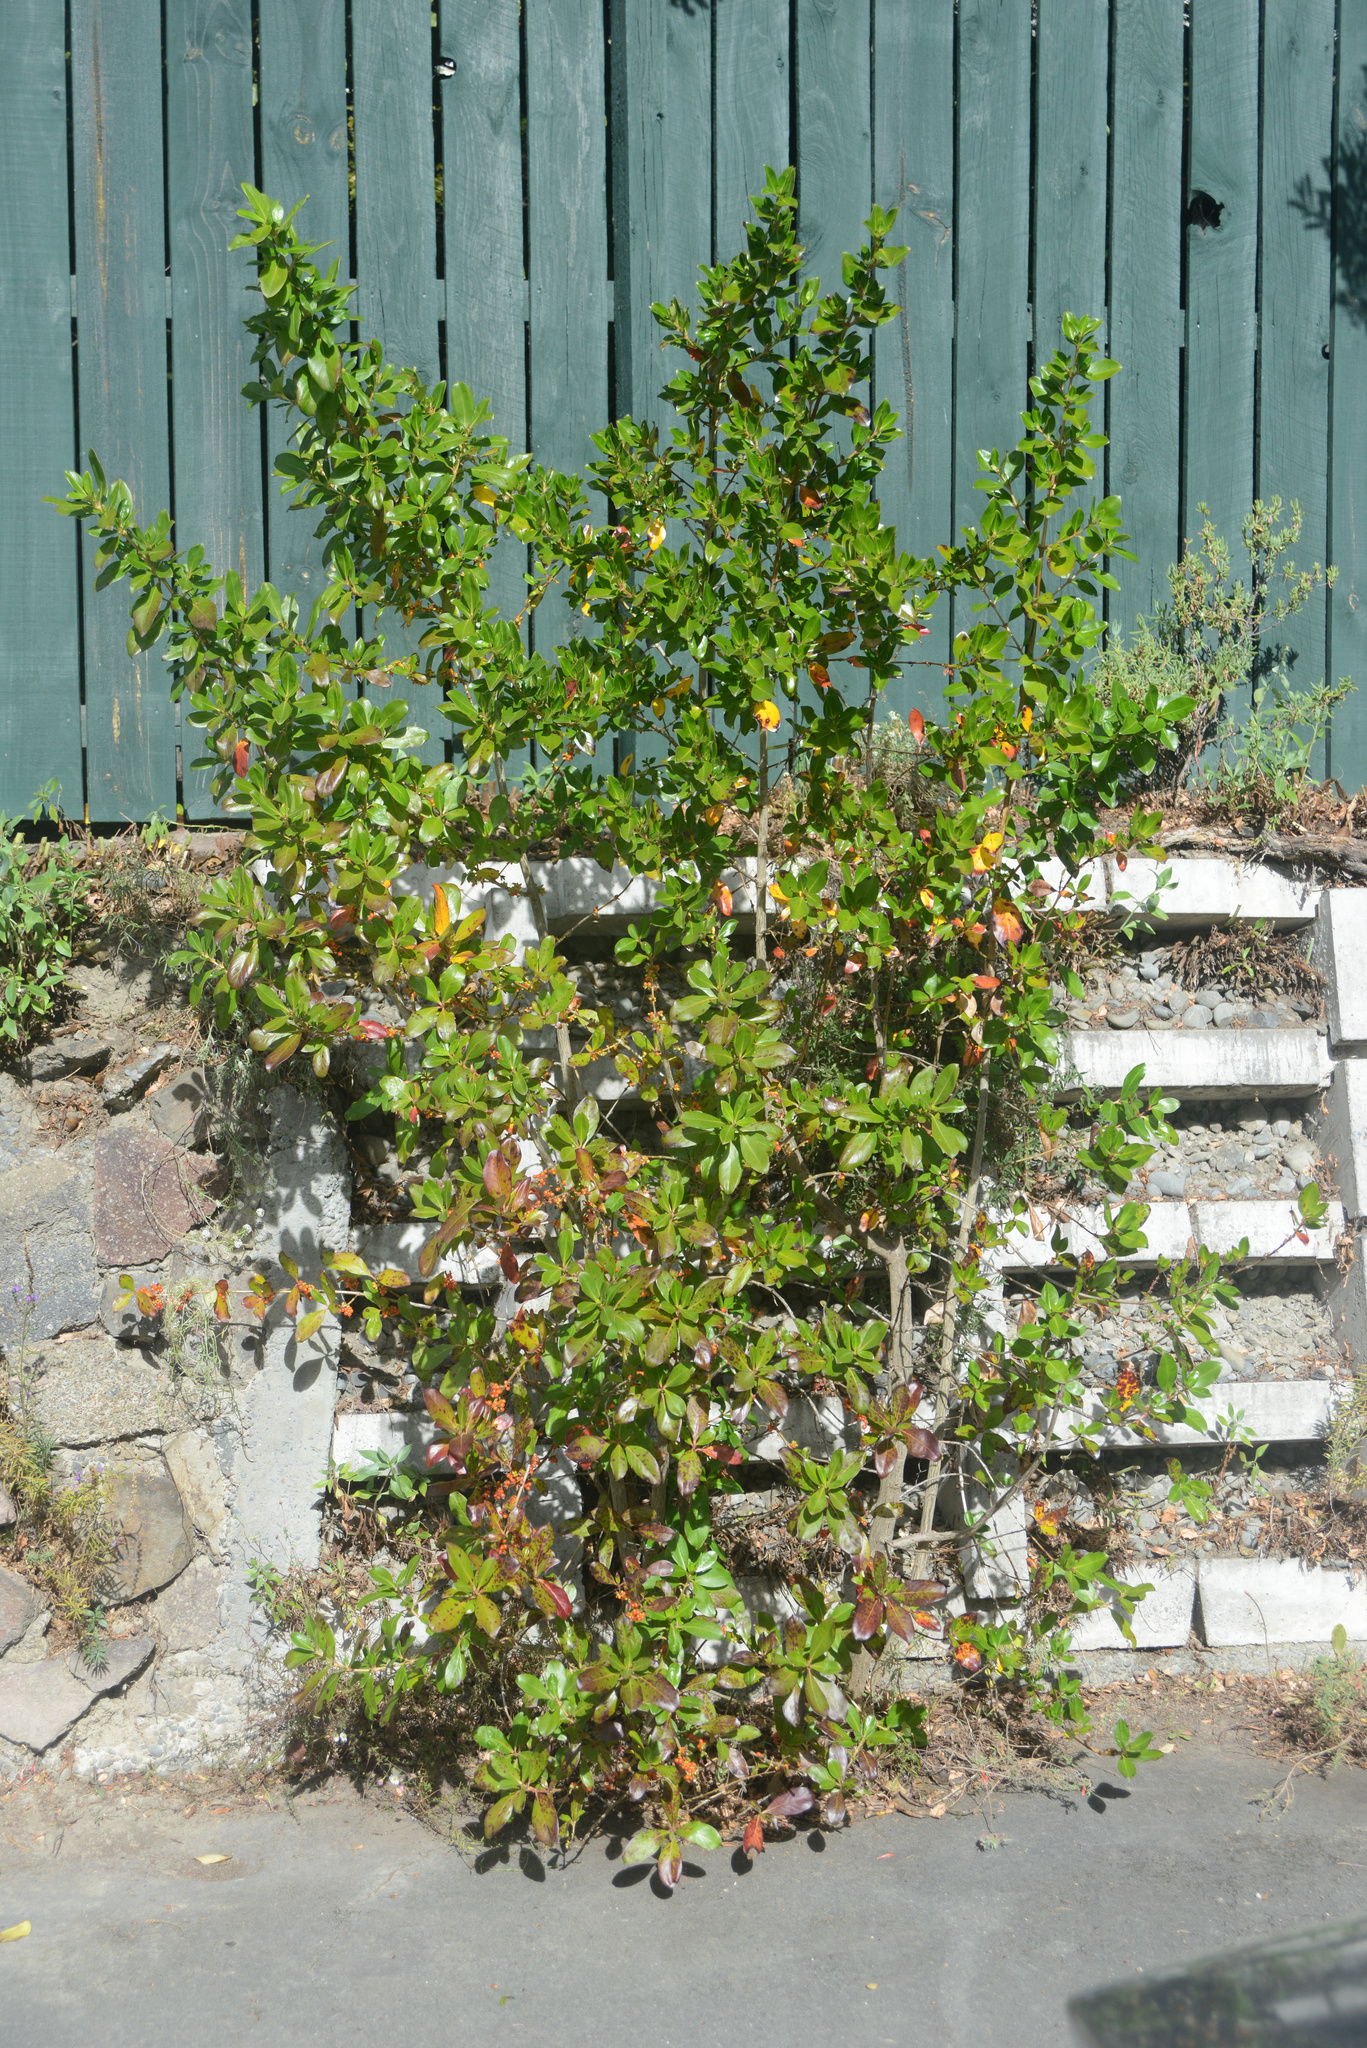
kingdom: Plantae
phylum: Tracheophyta
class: Magnoliopsida
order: Gentianales
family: Rubiaceae
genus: Coprosma
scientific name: Coprosma robusta
